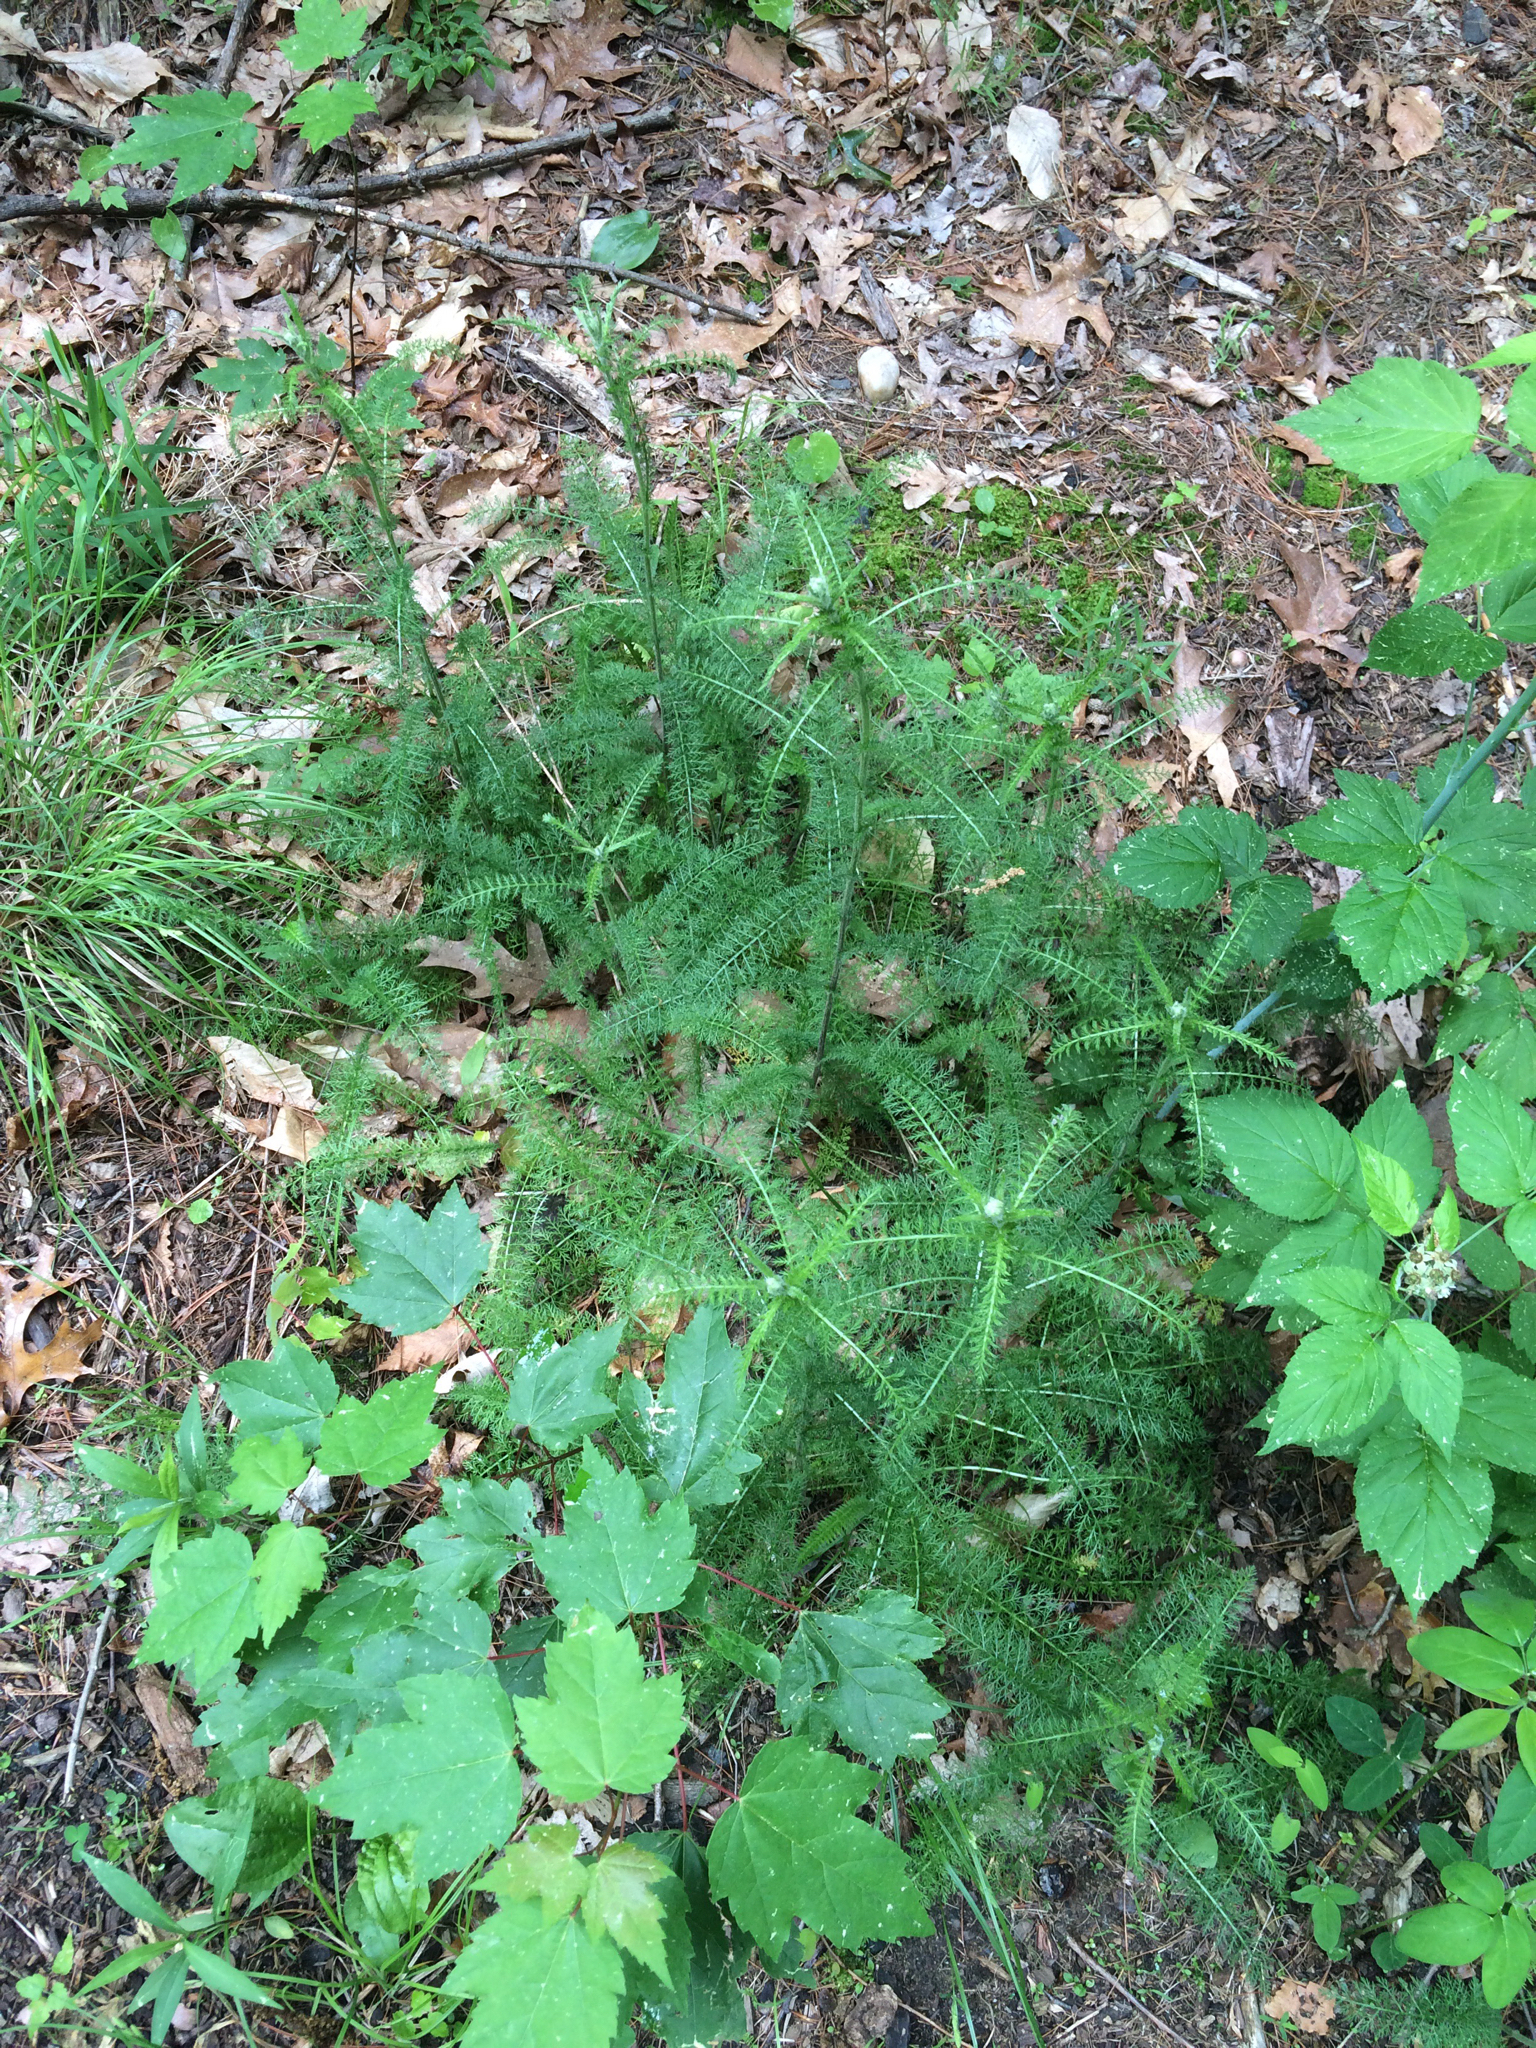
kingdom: Plantae
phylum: Tracheophyta
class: Magnoliopsida
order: Asterales
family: Asteraceae
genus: Achillea
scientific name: Achillea millefolium
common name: Yarrow
